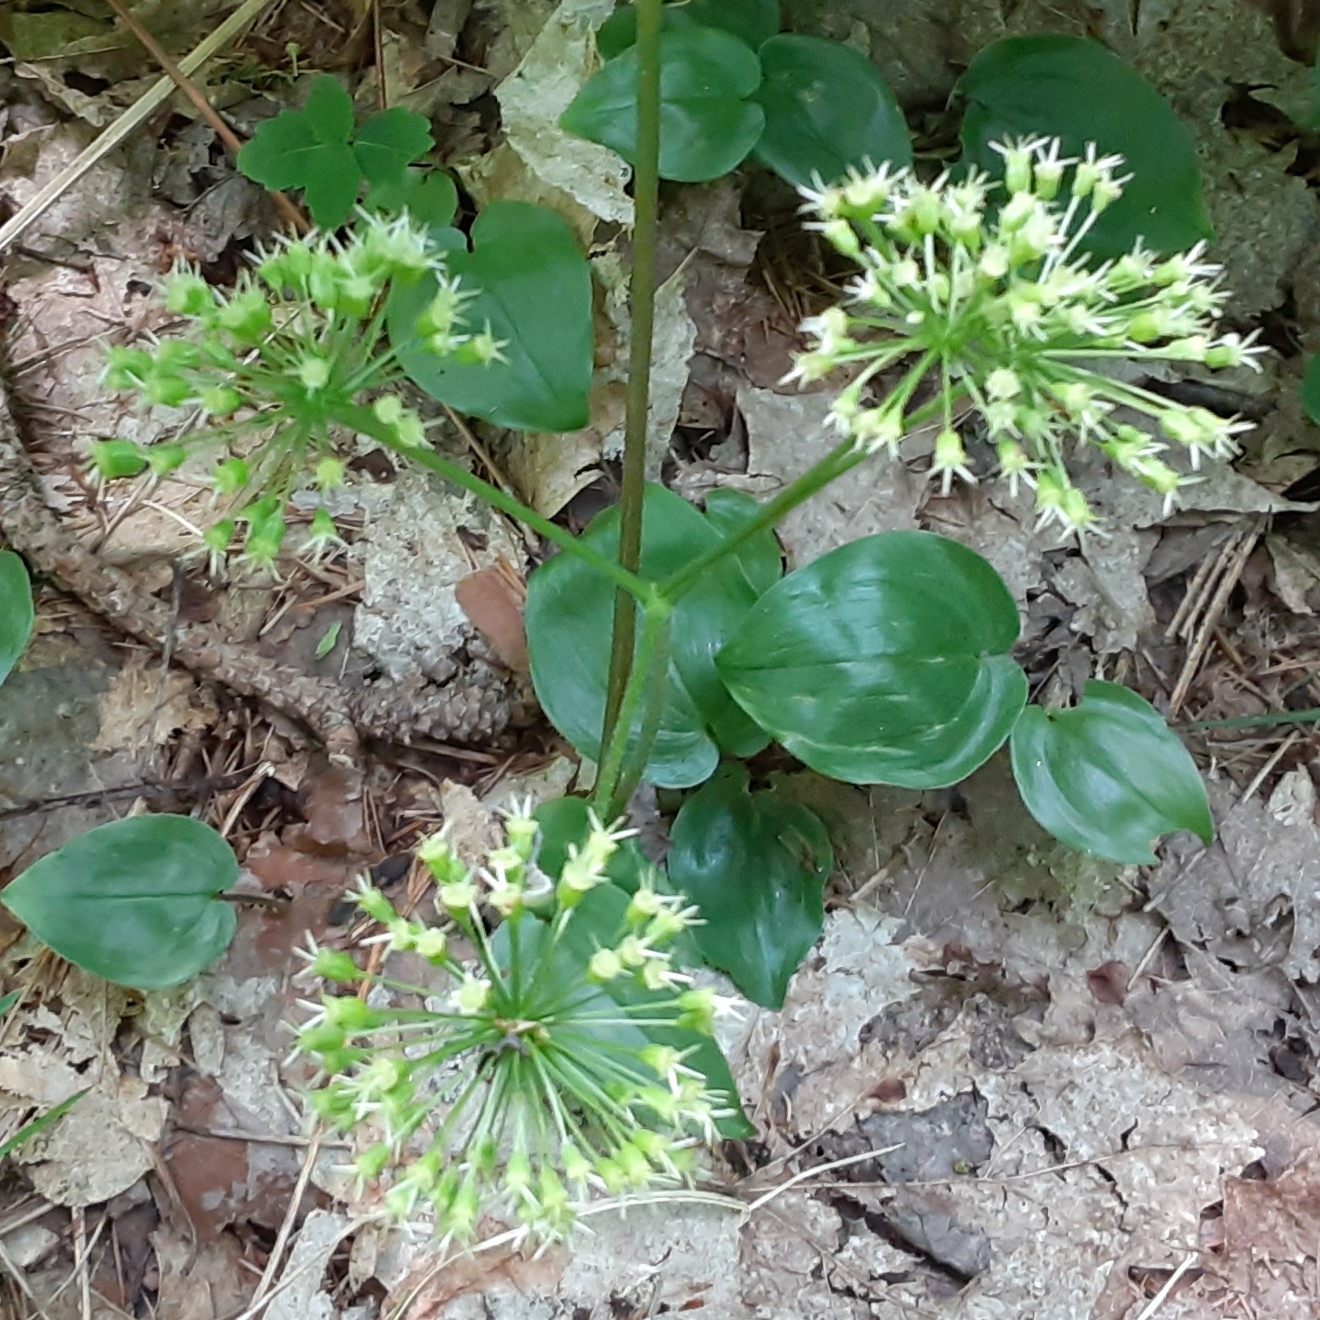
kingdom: Plantae
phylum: Tracheophyta
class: Magnoliopsida
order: Apiales
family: Araliaceae
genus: Aralia
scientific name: Aralia nudicaulis
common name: Wild sarsaparilla
